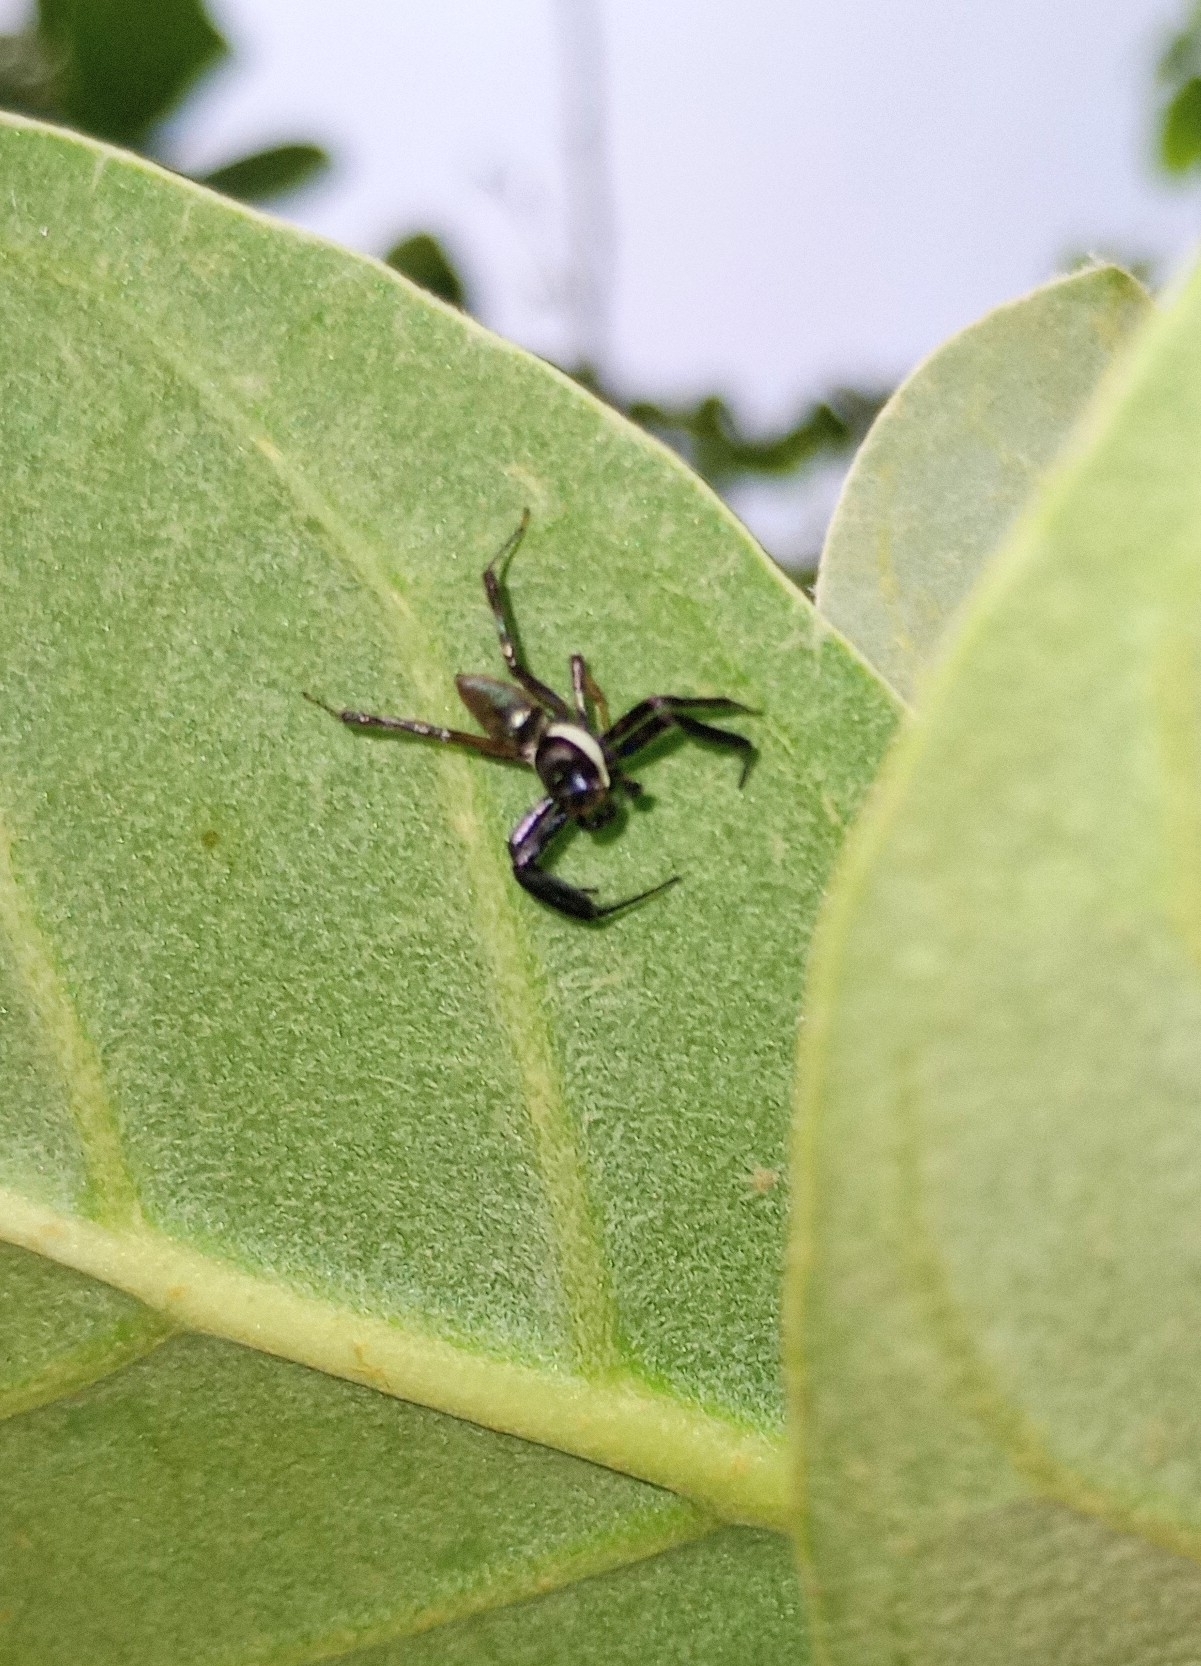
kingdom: Animalia
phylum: Arthropoda
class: Arachnida
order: Araneae
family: Salticidae
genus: Brettus
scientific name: Brettus cingulatus
